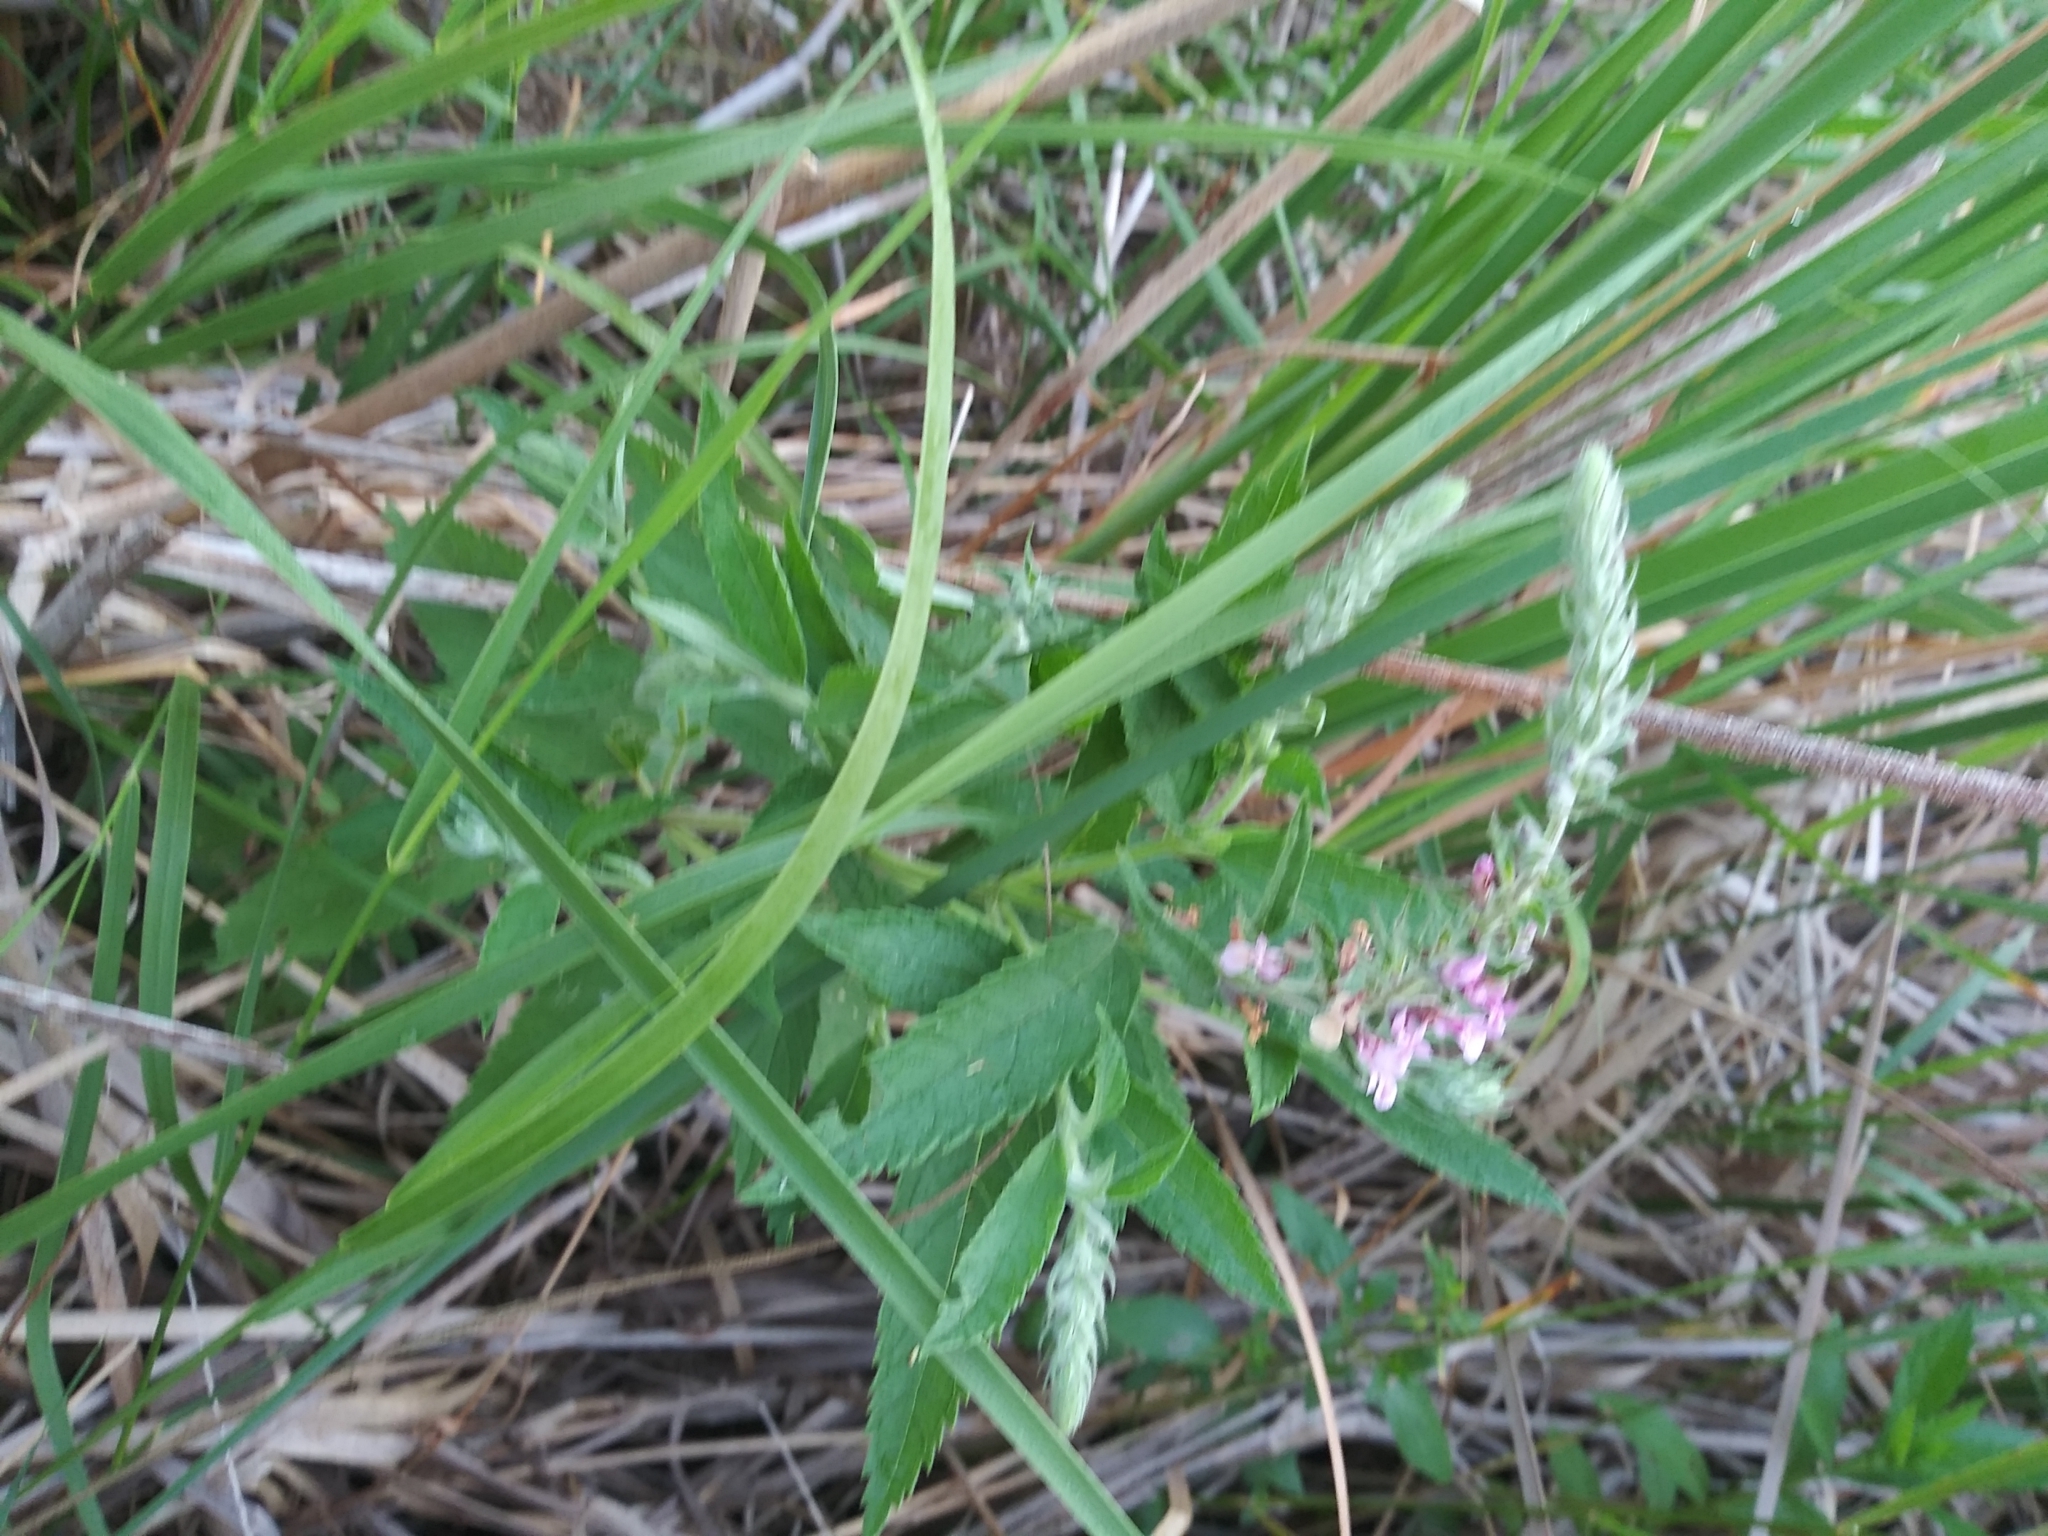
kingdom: Plantae
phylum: Tracheophyta
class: Magnoliopsida
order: Lamiales
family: Lamiaceae
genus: Teucrium
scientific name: Teucrium canadense
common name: American germander
